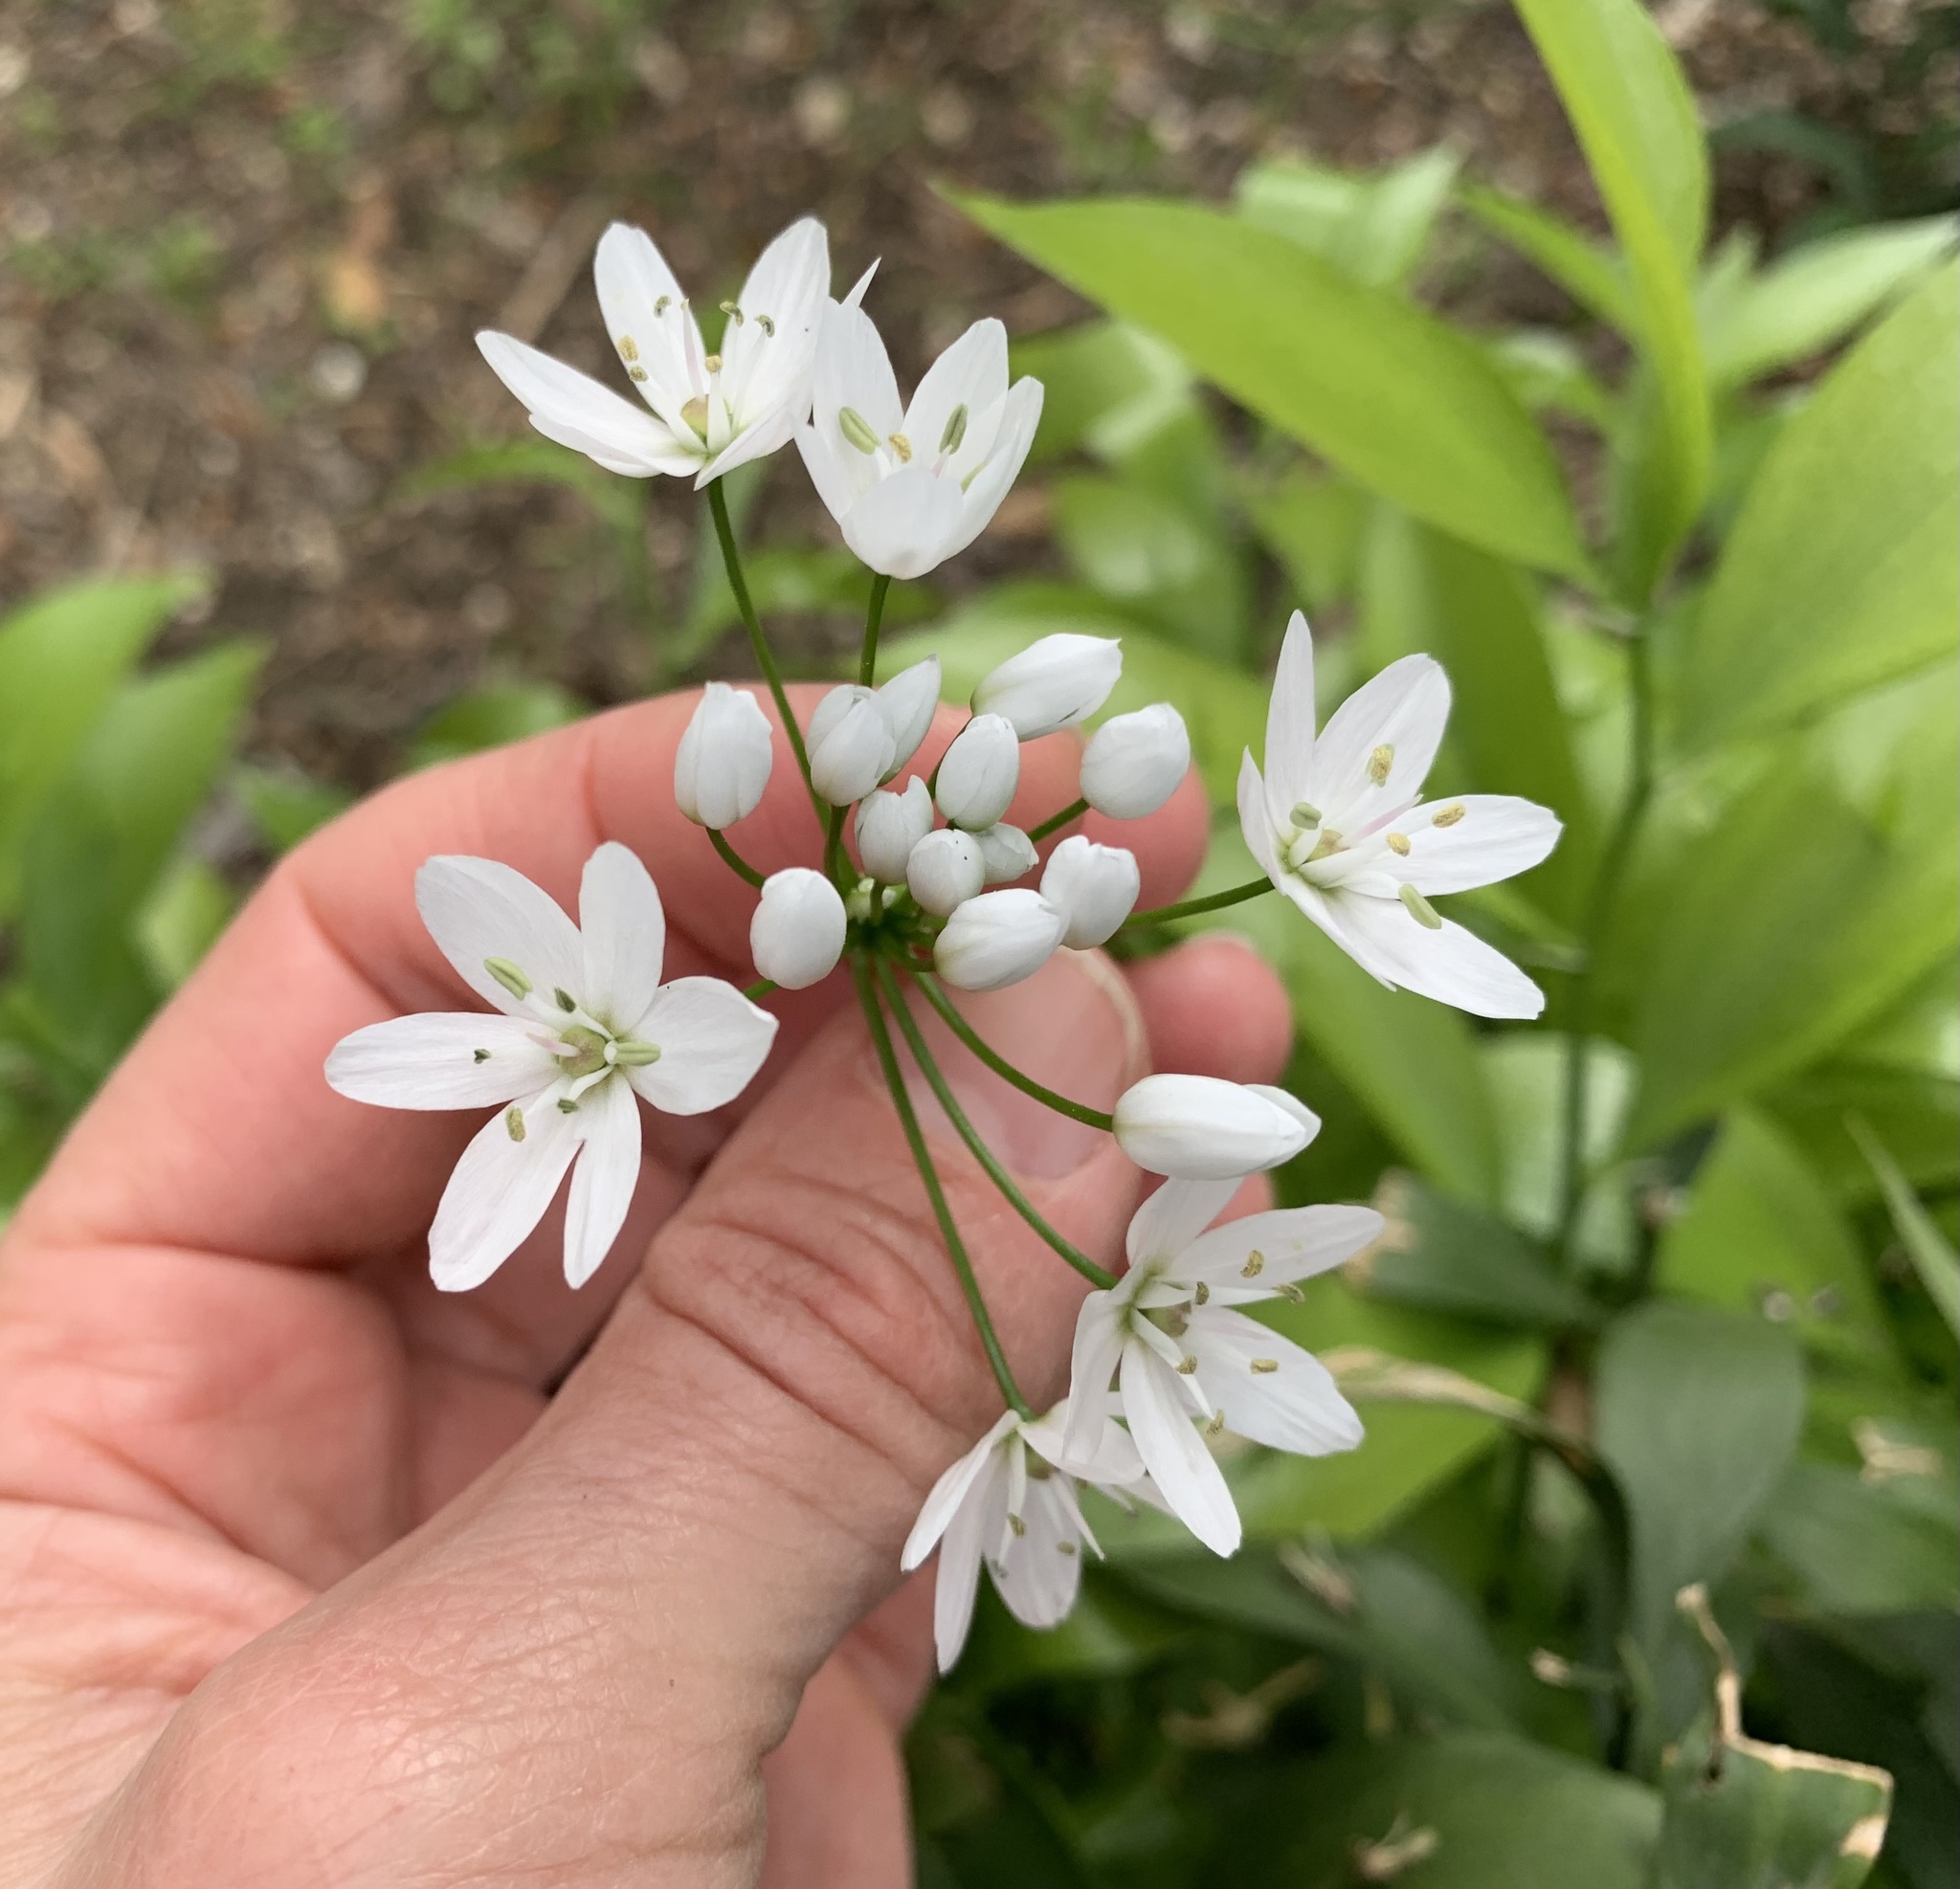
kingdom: Plantae
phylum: Tracheophyta
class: Liliopsida
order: Asparagales
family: Amaryllidaceae
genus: Allium
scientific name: Allium neapolitanum
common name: Neapolitan garlic
